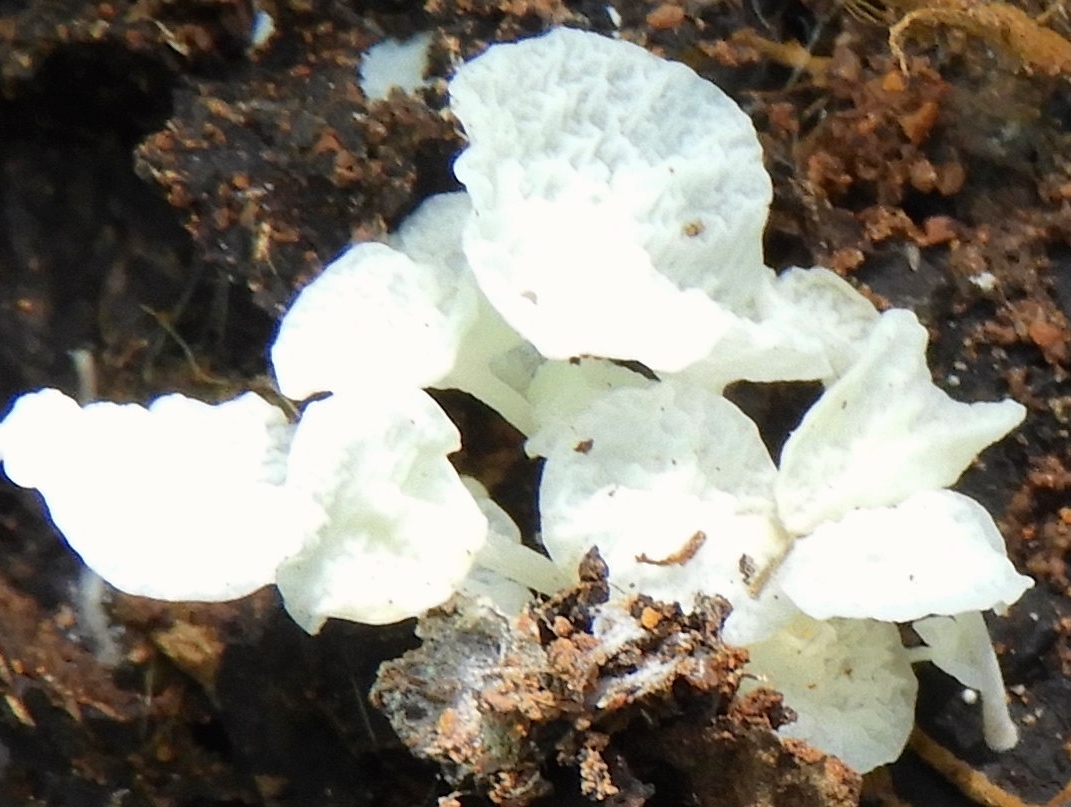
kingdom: Fungi
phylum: Basidiomycota
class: Agaricomycetes
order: Agaricales
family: Marasmiaceae
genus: Tetrapyrgos
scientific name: Tetrapyrgos
